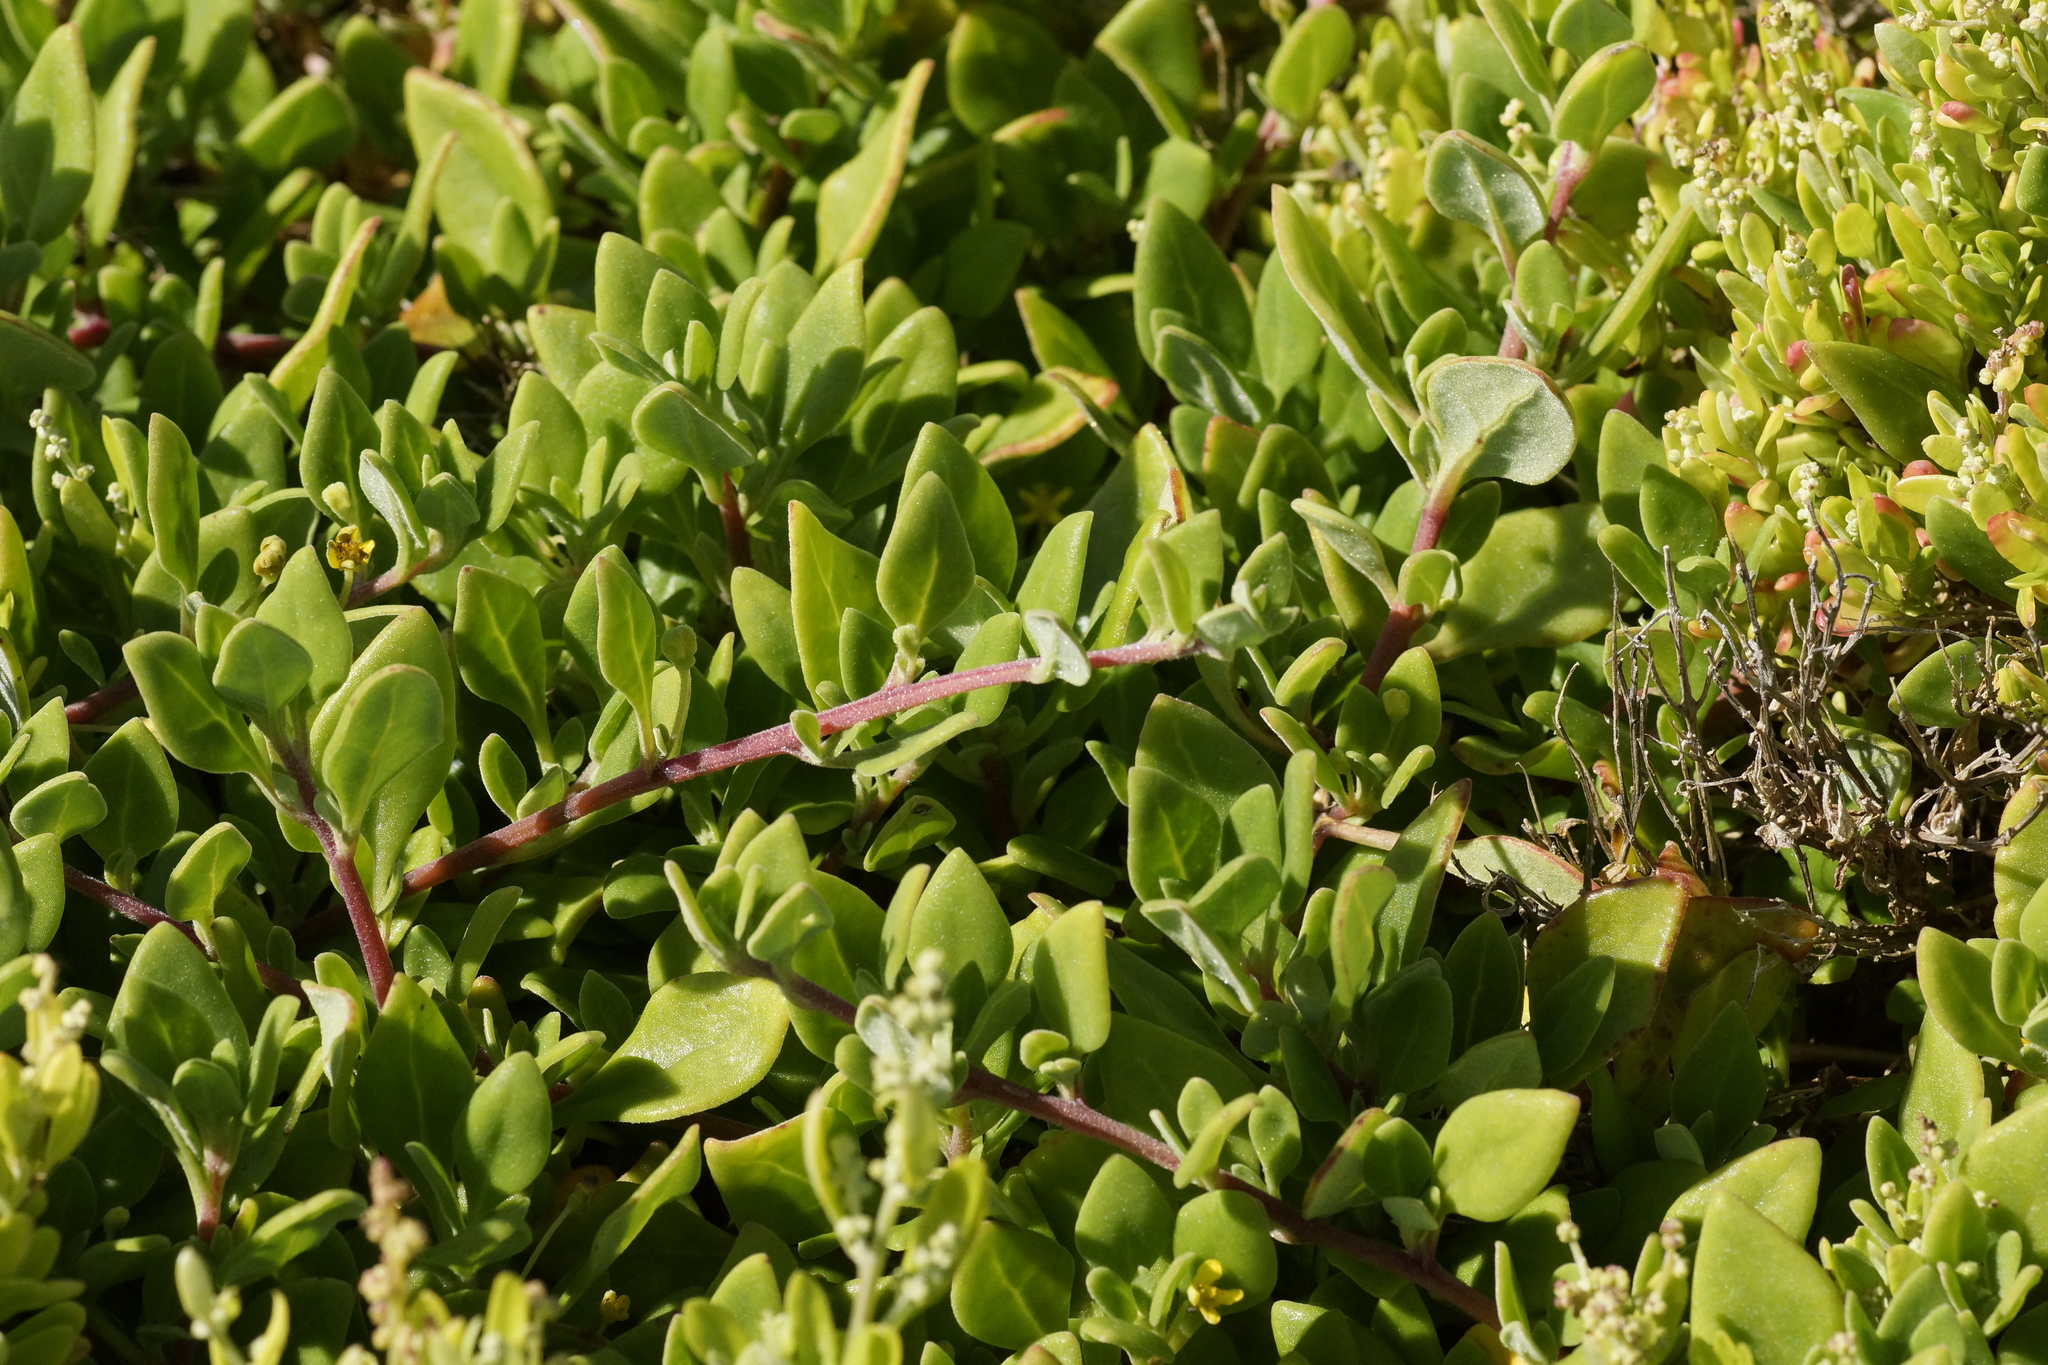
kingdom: Plantae
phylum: Tracheophyta
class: Magnoliopsida
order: Caryophyllales
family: Aizoaceae
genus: Tetragonia
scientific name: Tetragonia implexicoma
